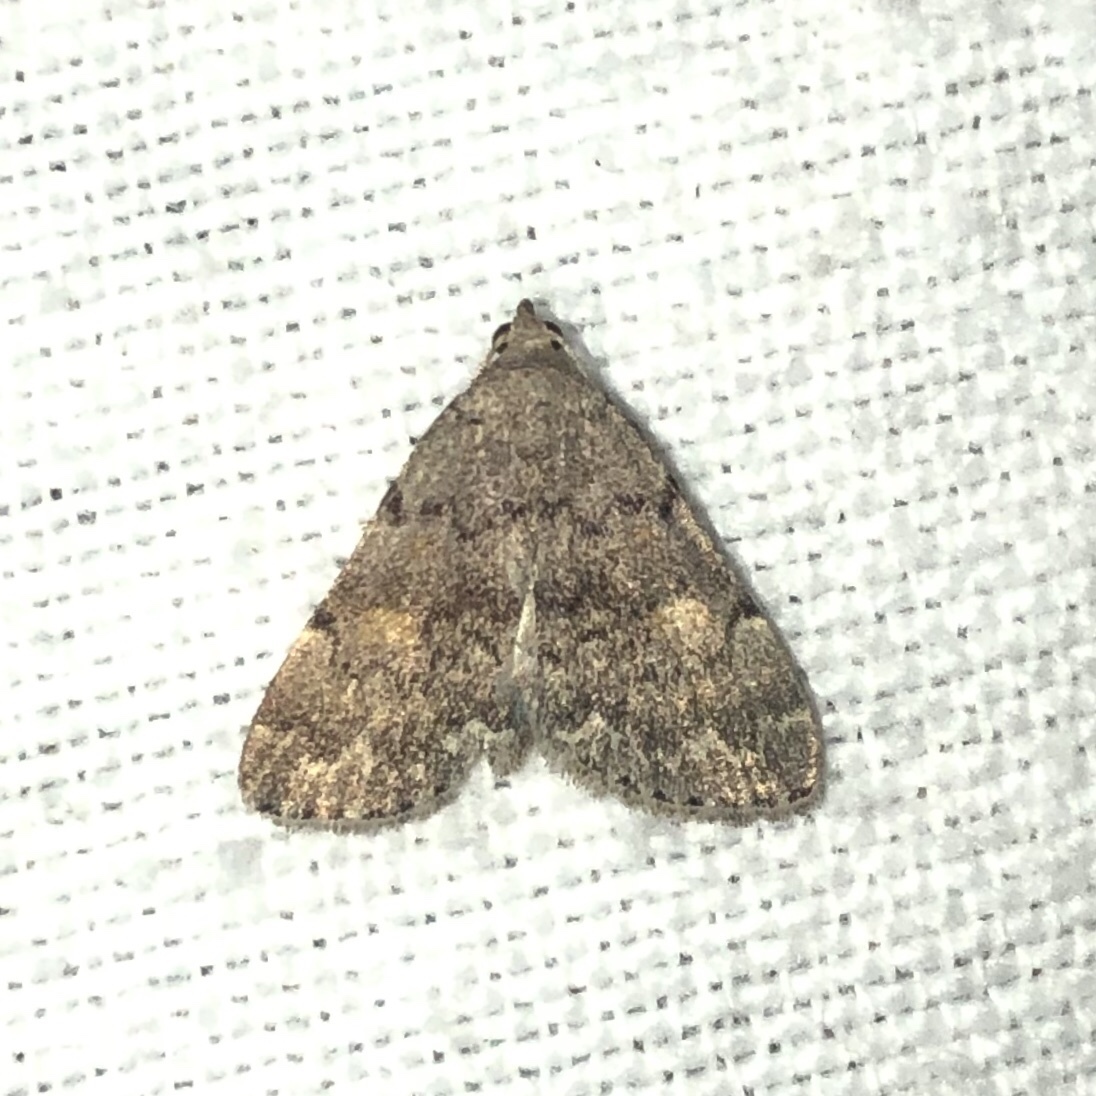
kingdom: Animalia
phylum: Arthropoda
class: Insecta
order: Lepidoptera
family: Erebidae
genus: Idia
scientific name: Idia aemula
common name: Common idia moth
